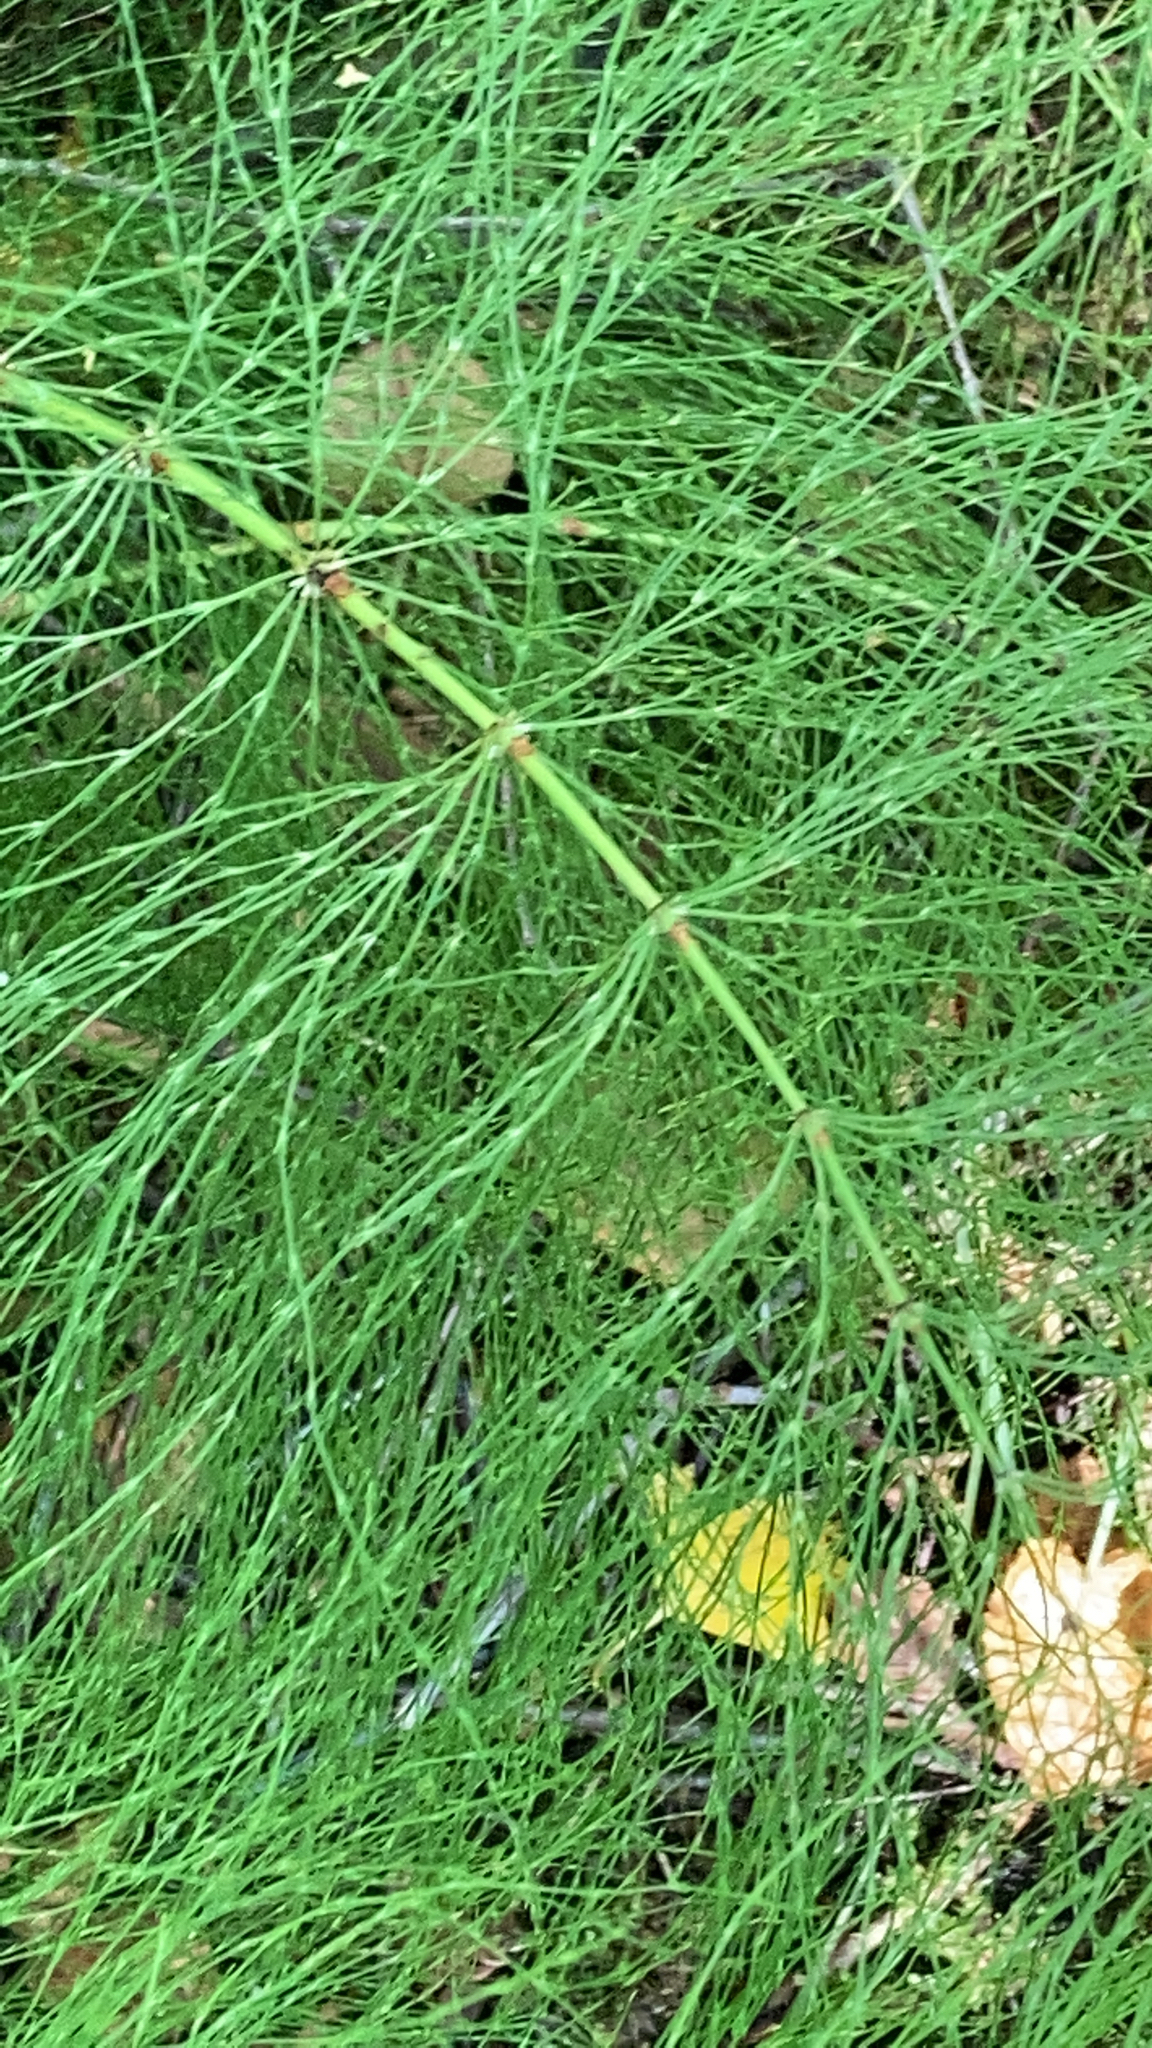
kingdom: Plantae
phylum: Tracheophyta
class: Polypodiopsida
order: Equisetales
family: Equisetaceae
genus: Equisetum
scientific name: Equisetum sylvaticum
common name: Wood horsetail
